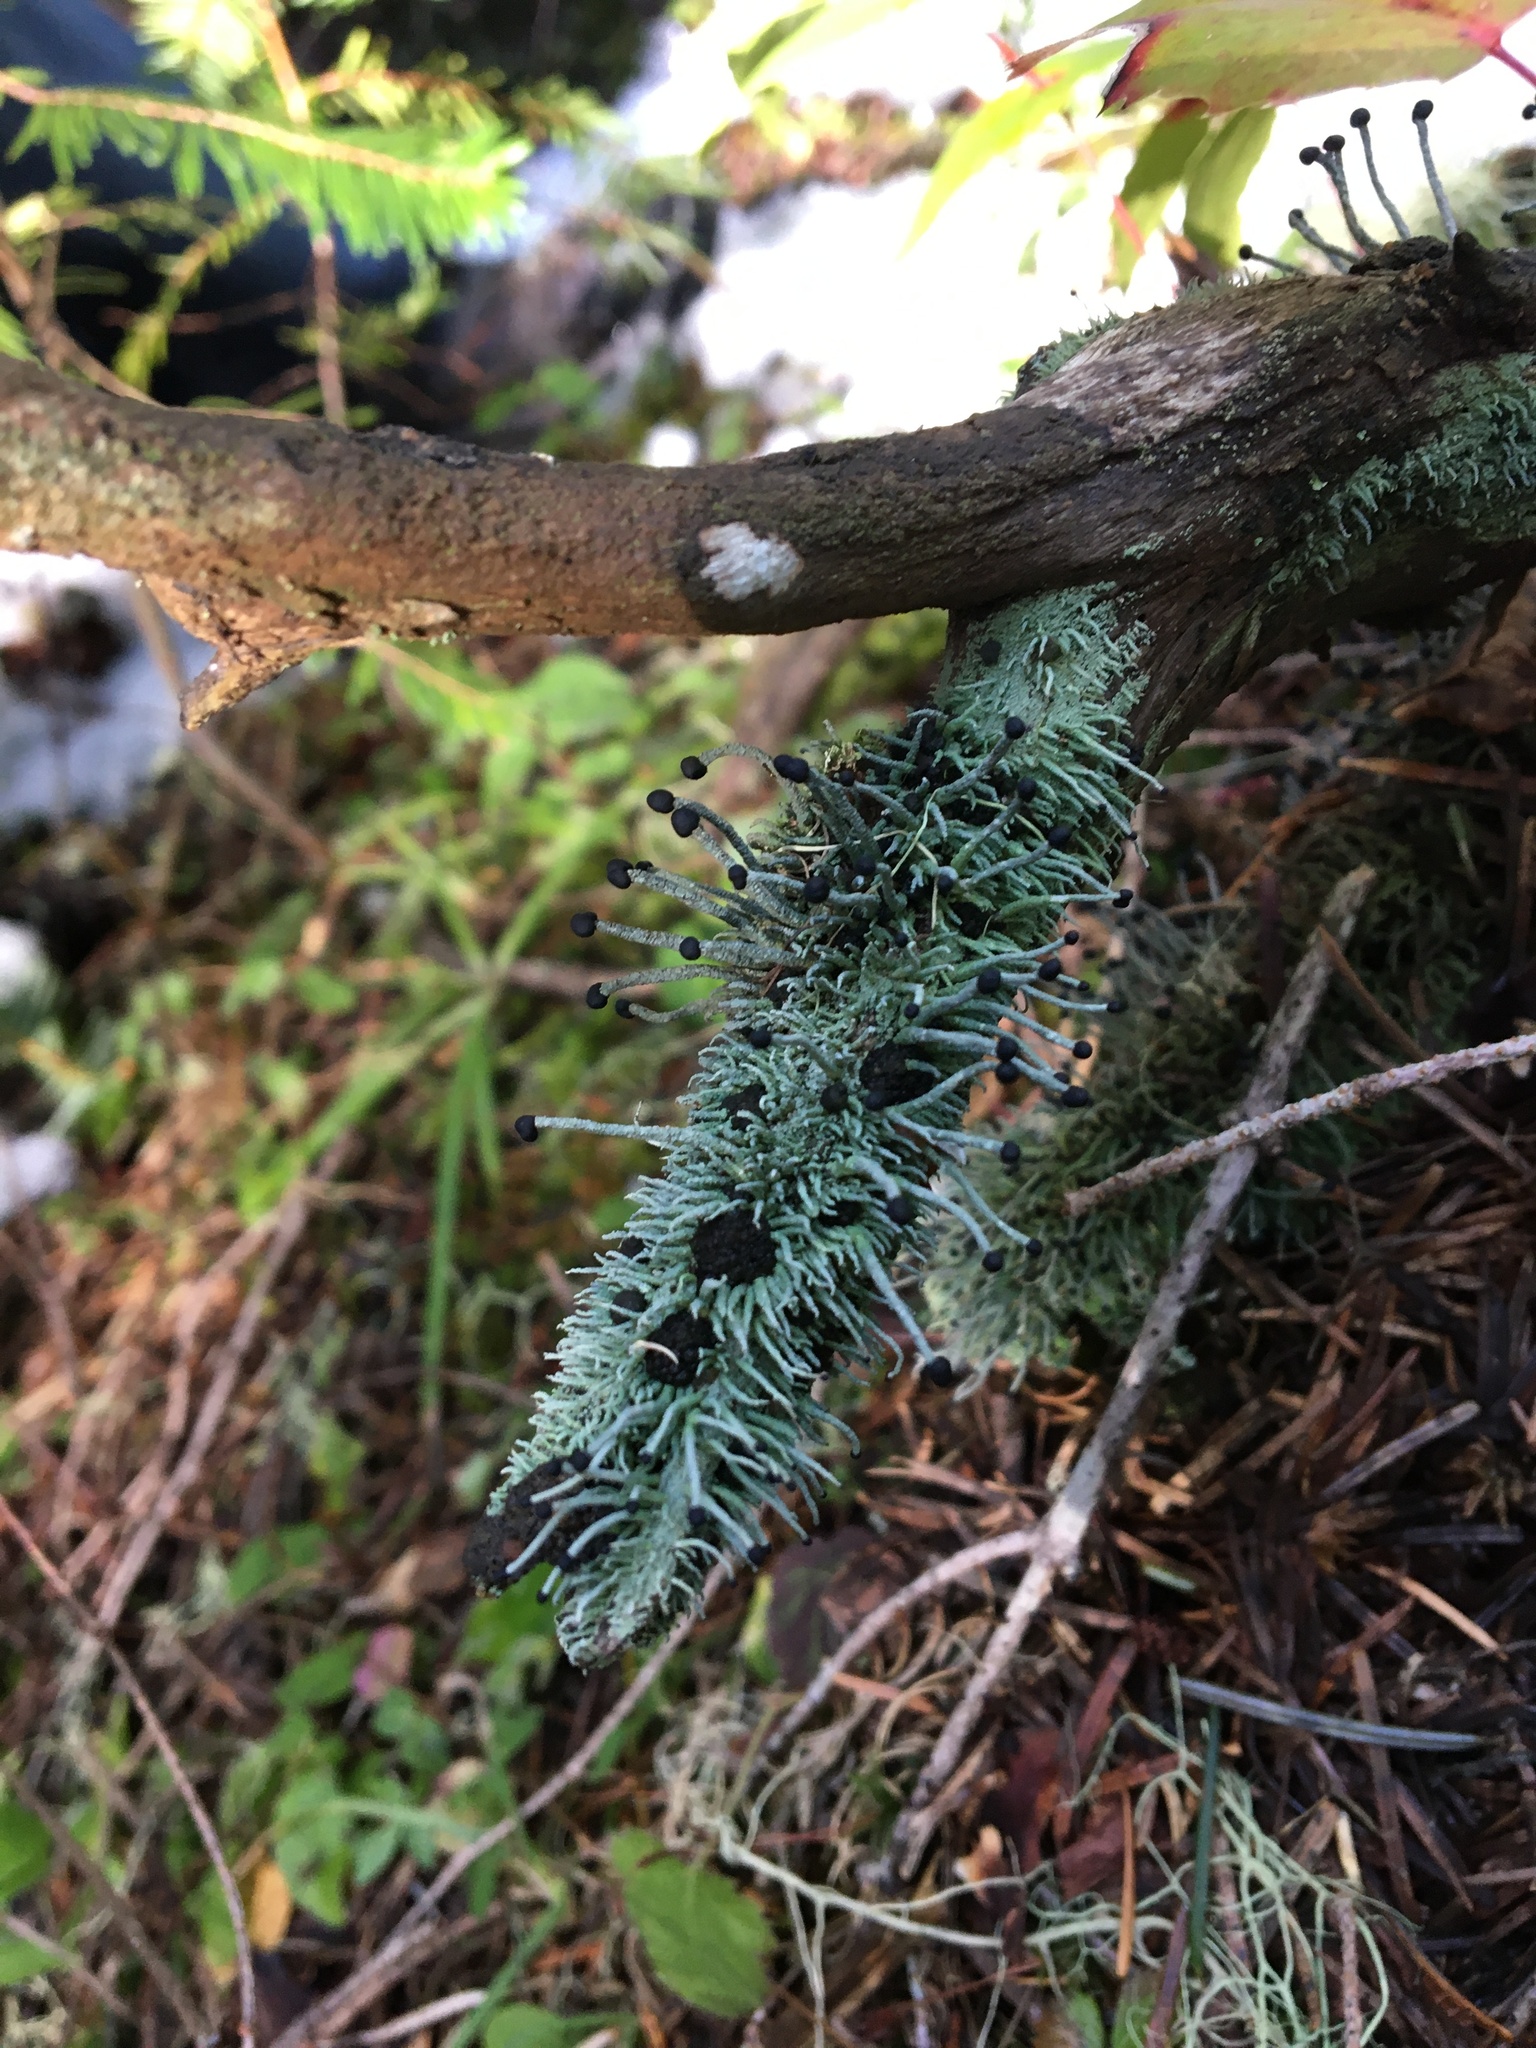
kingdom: Fungi
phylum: Ascomycota
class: Lecanoromycetes
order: Lecanorales
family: Cladoniaceae
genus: Pilophorus
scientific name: Pilophorus acicularis
